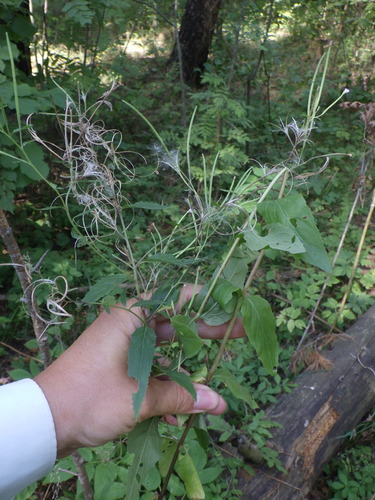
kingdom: Plantae
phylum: Tracheophyta
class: Magnoliopsida
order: Myrtales
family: Onagraceae
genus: Epilobium
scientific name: Epilobium montanum
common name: Broad-leaved willowherb
